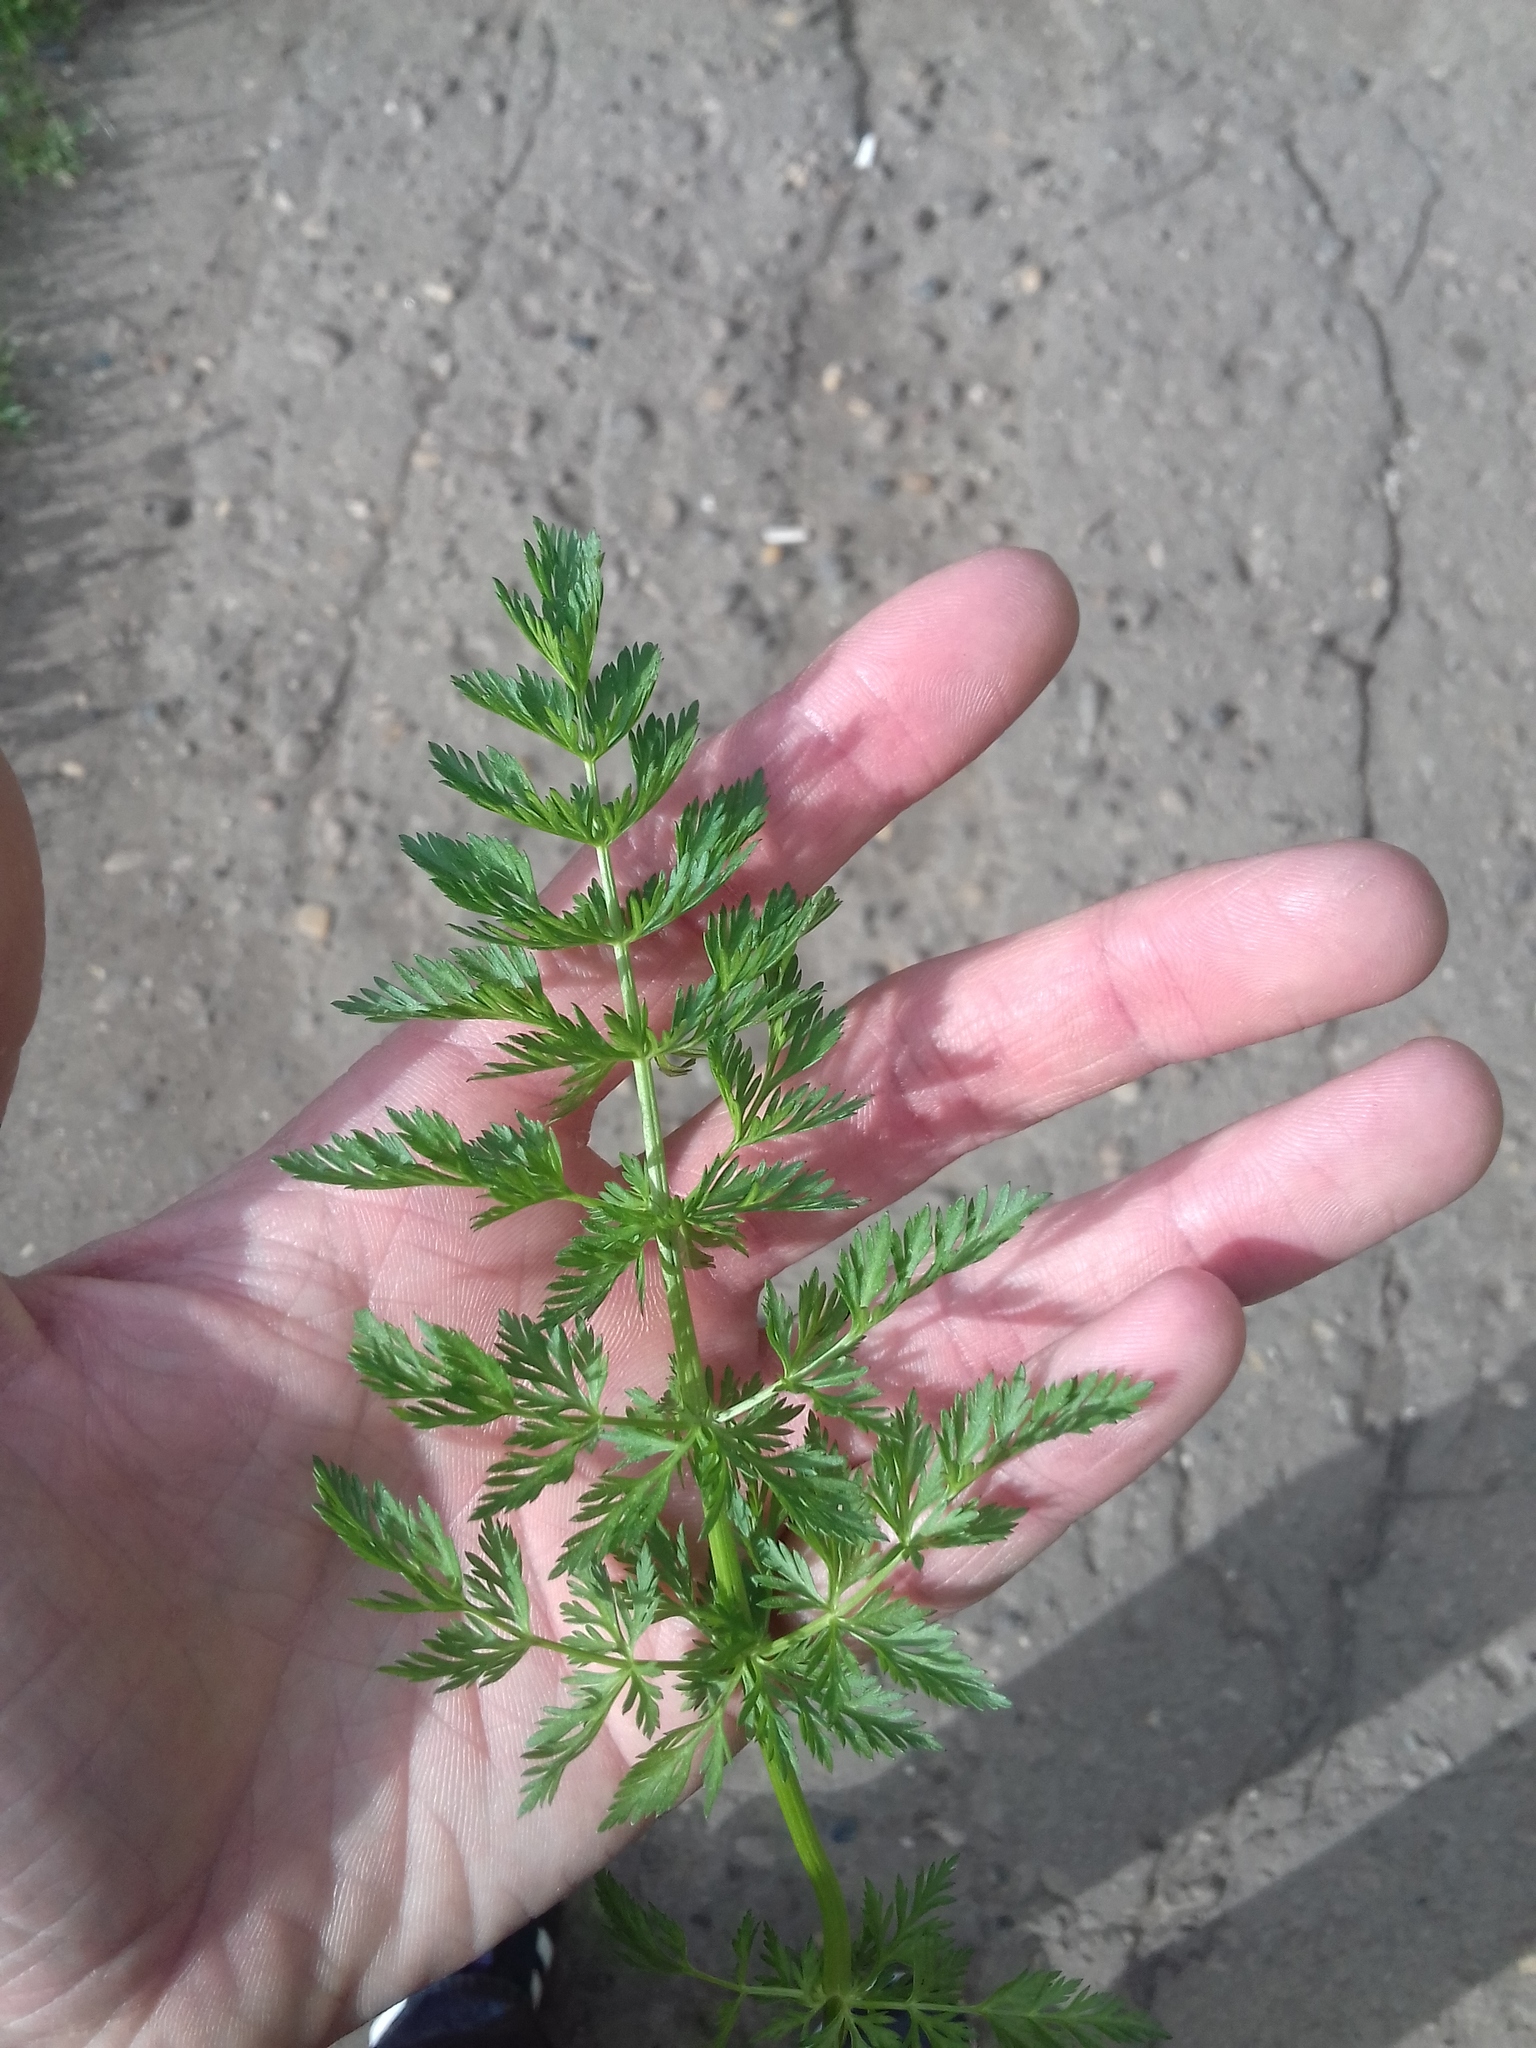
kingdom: Plantae
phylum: Tracheophyta
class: Magnoliopsida
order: Apiales
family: Apiaceae
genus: Carum
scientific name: Carum carvi
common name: Caraway
